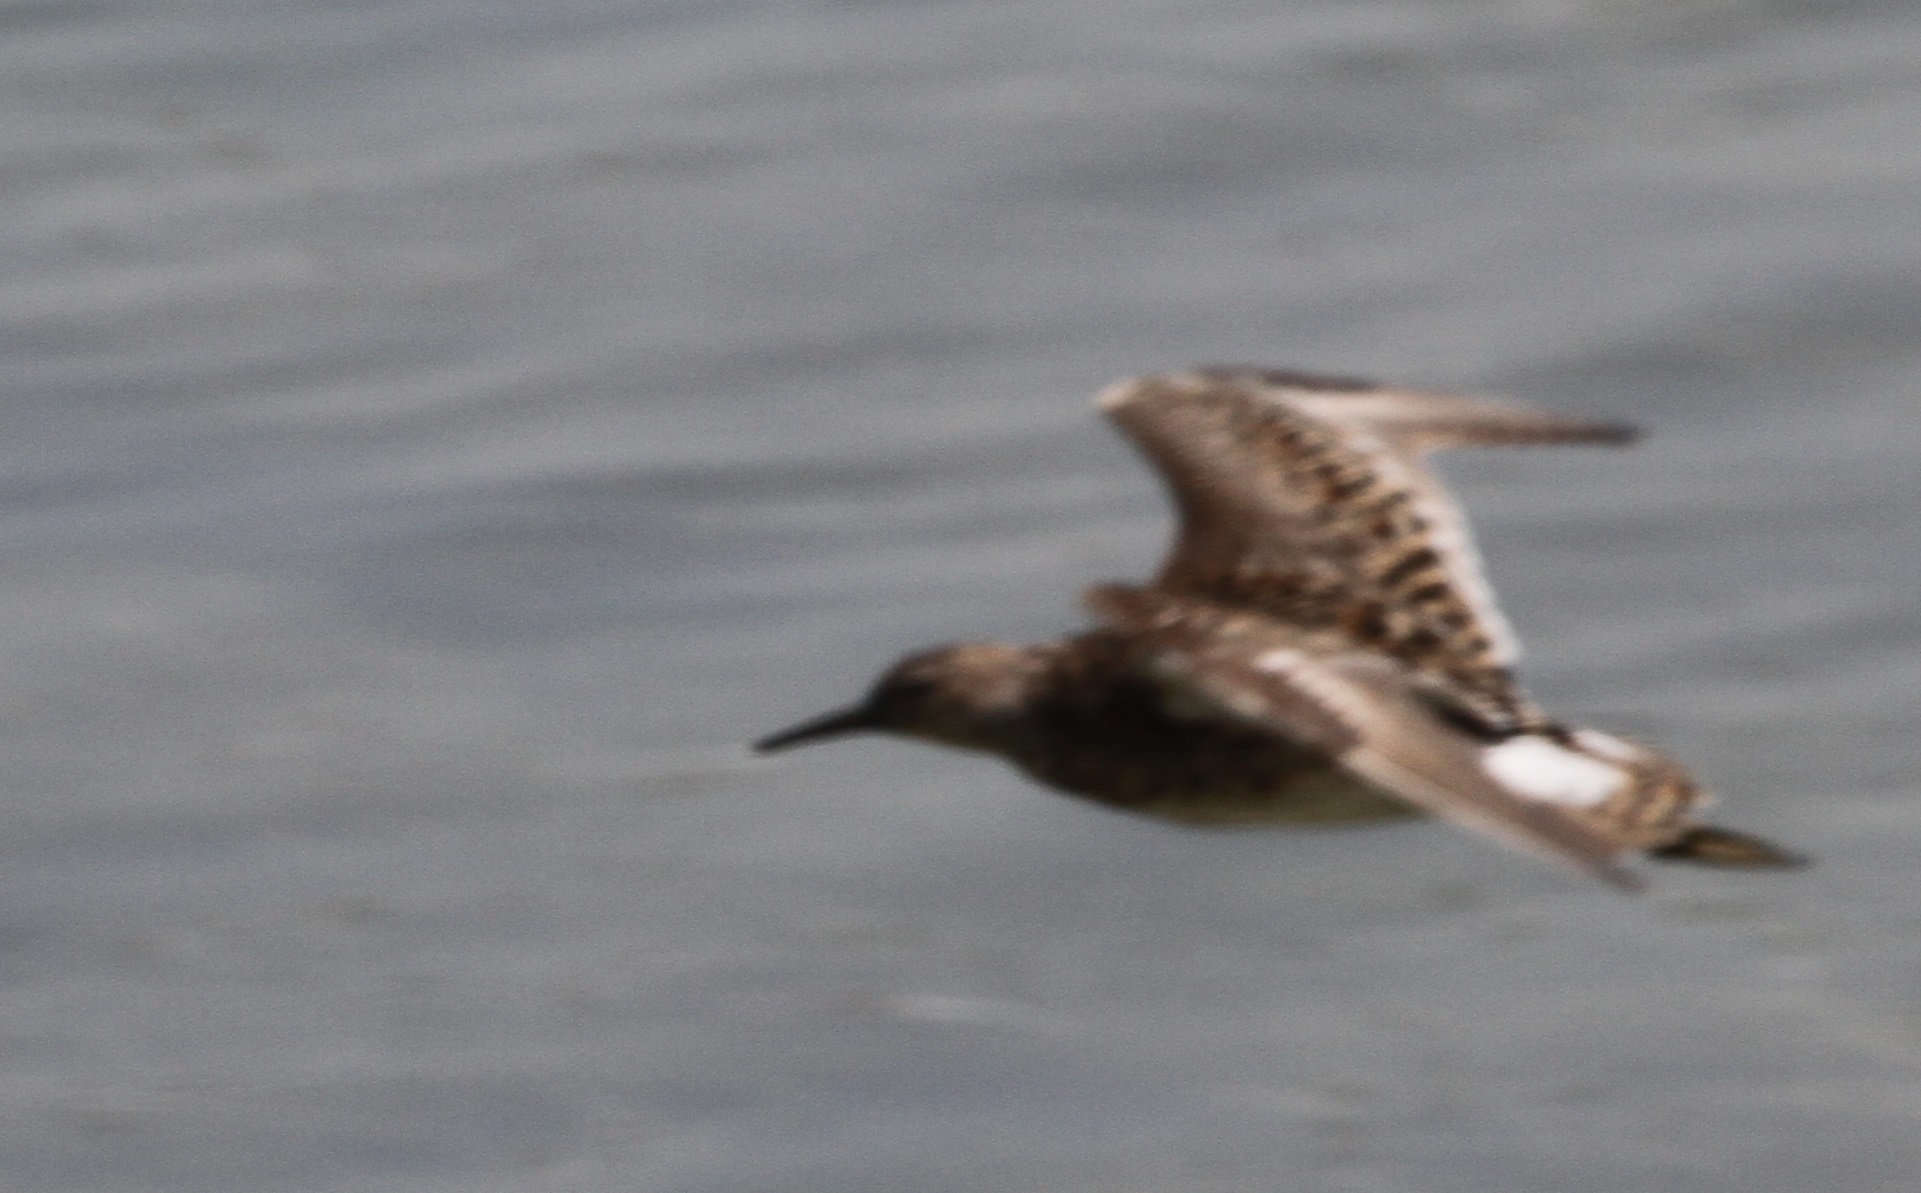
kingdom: Animalia
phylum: Chordata
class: Aves
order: Charadriiformes
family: Scolopacidae
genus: Calidris
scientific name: Calidris pugnax
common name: Ruff
